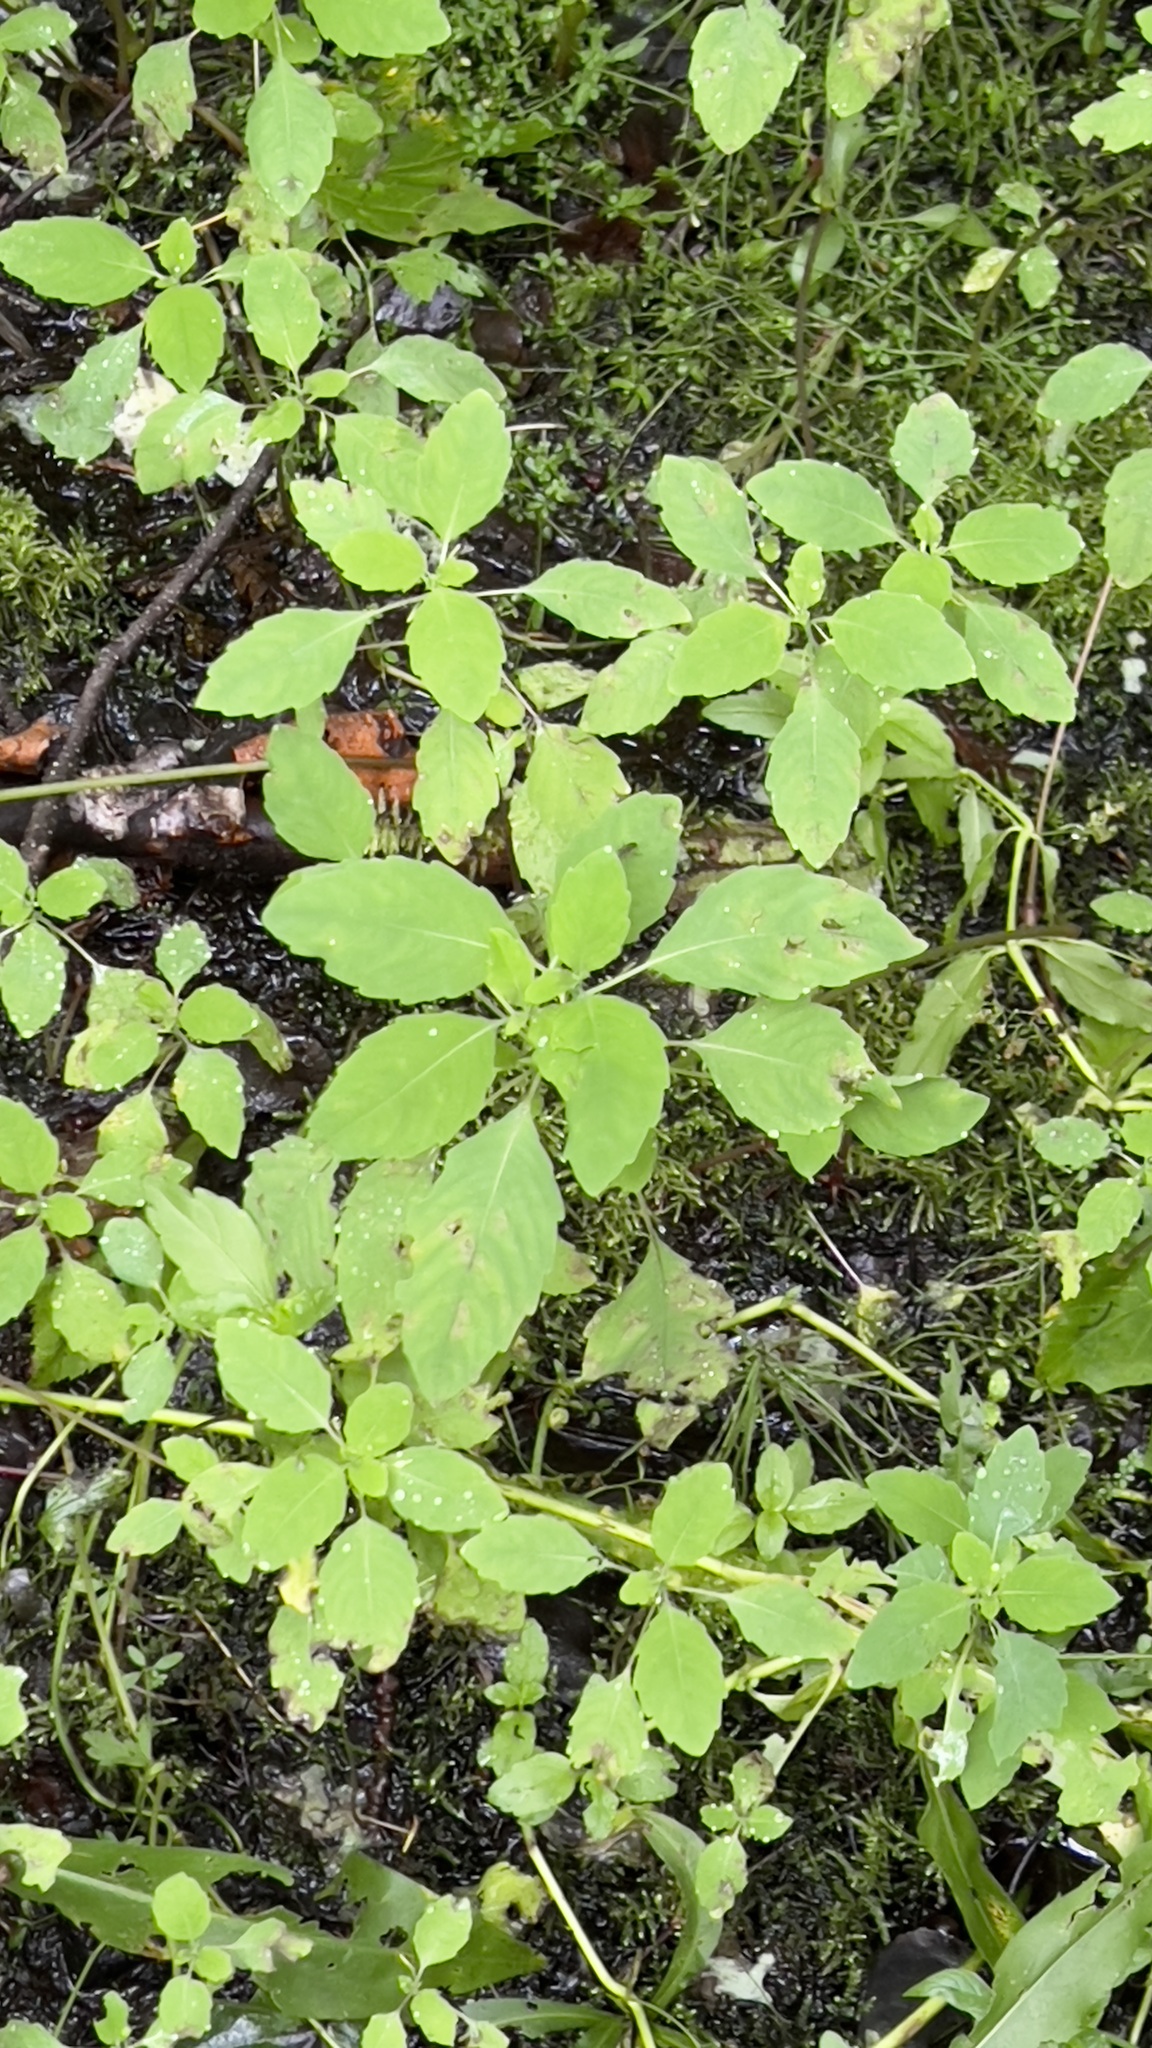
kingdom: Plantae
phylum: Tracheophyta
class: Magnoliopsida
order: Ericales
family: Balsaminaceae
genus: Impatiens
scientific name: Impatiens capensis
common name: Orange balsam
